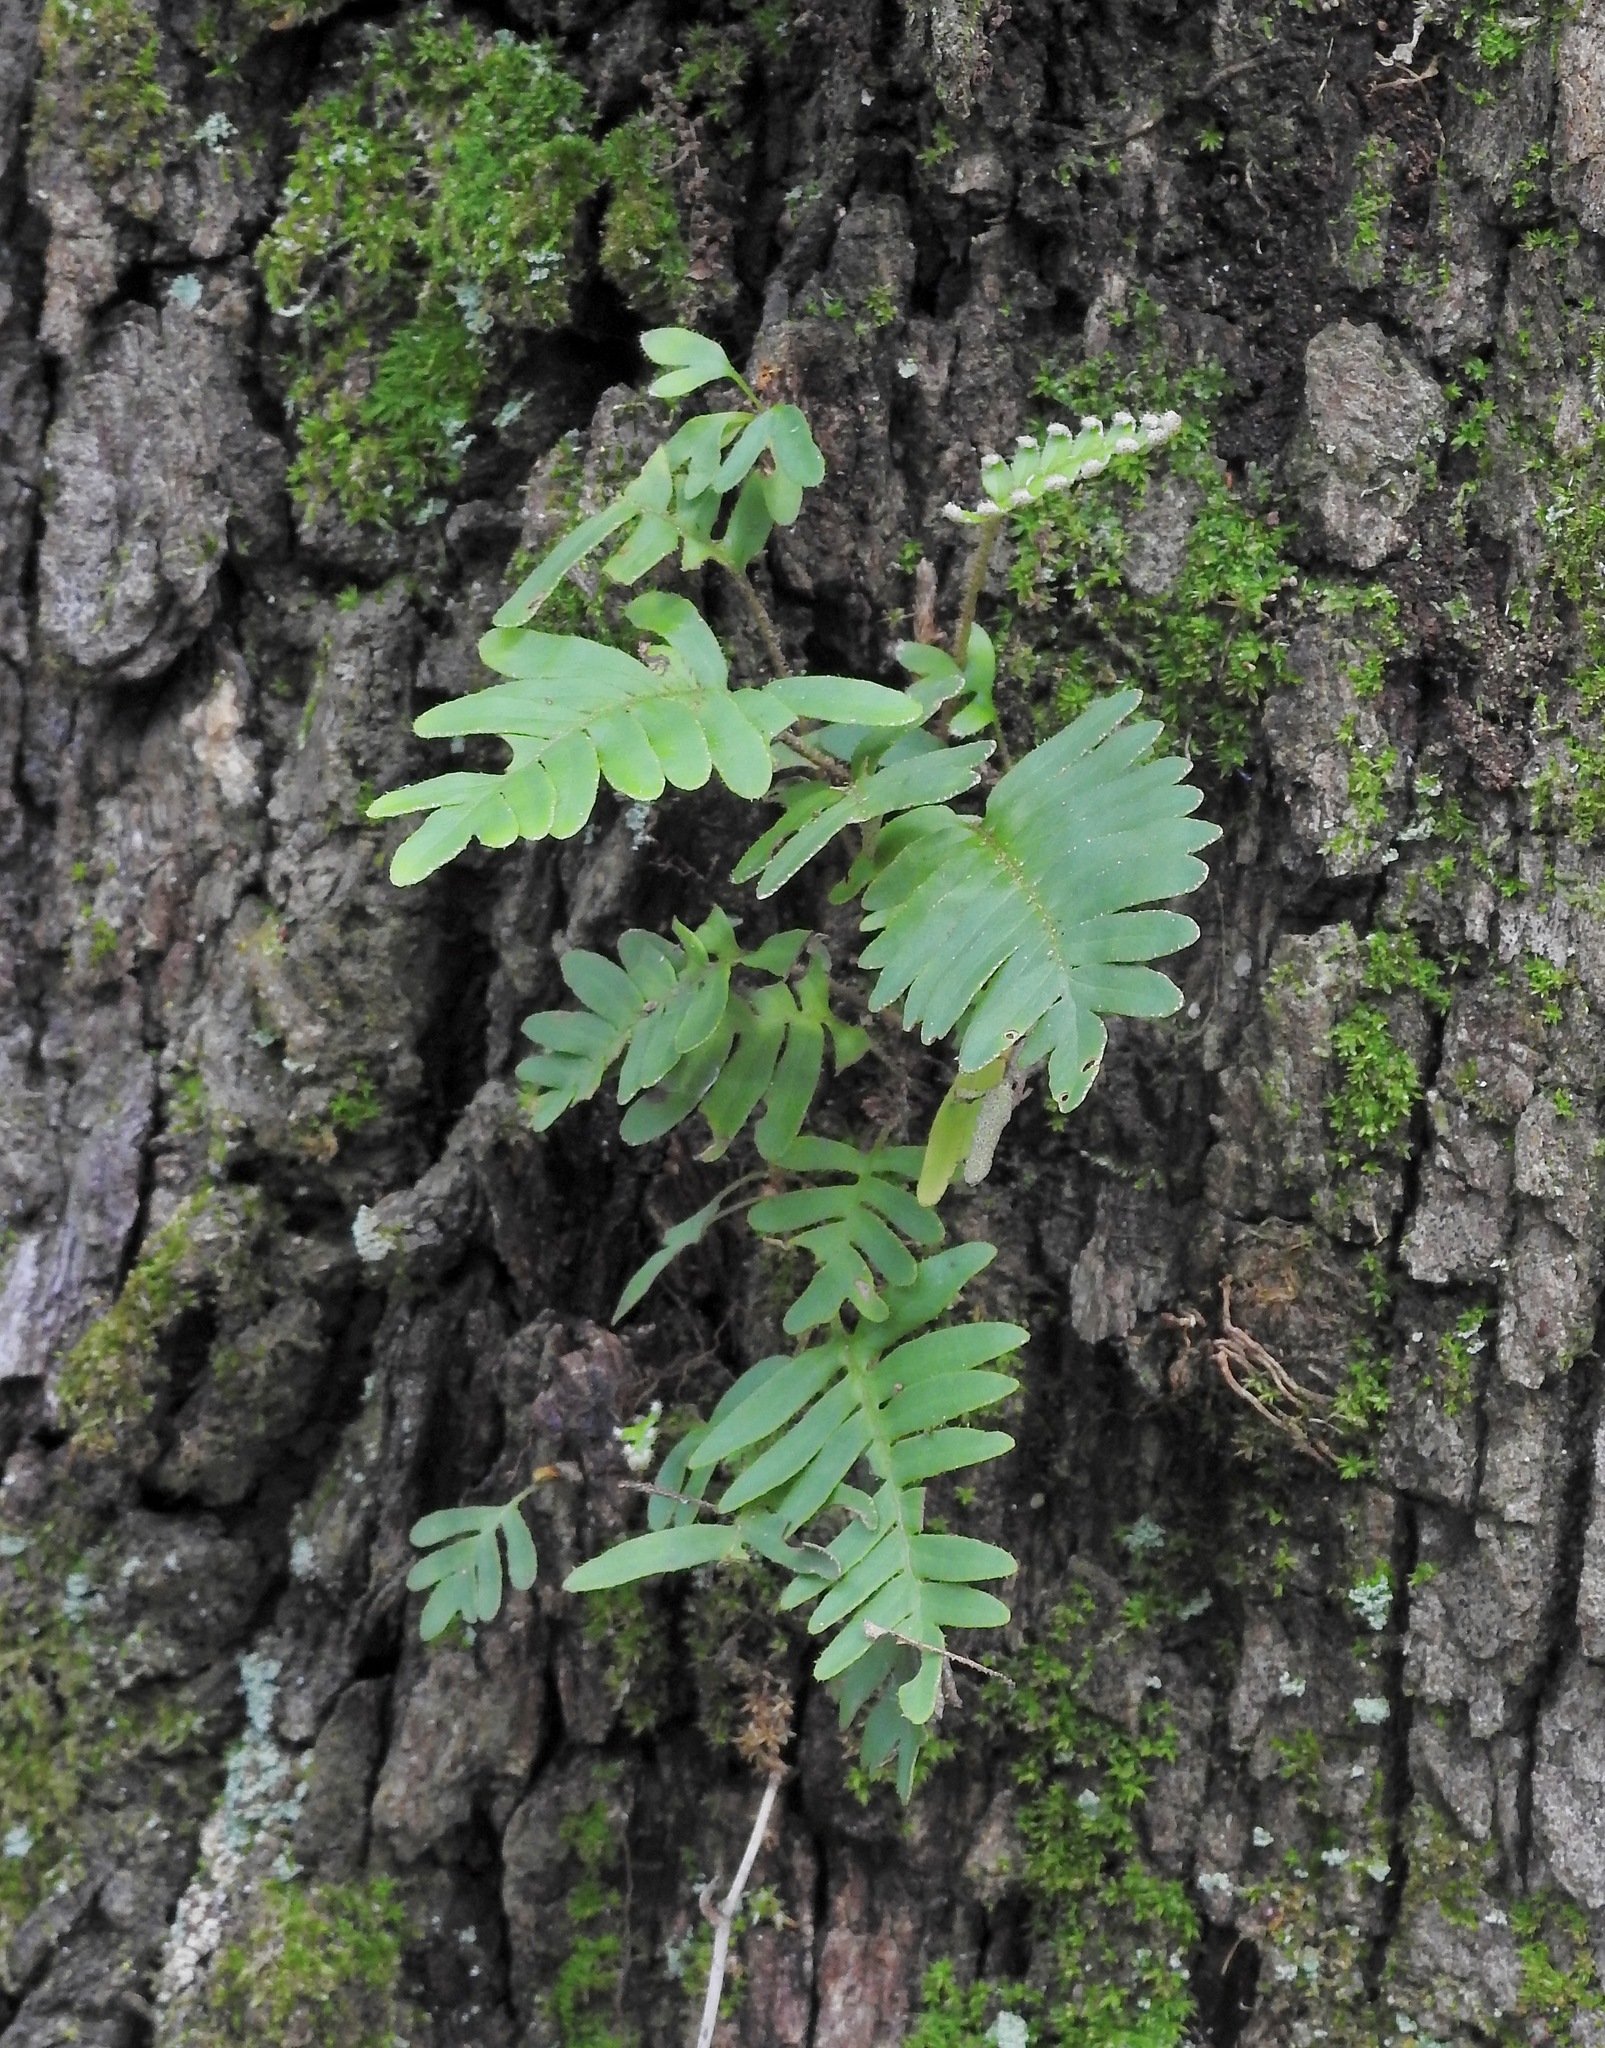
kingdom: Plantae
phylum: Tracheophyta
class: Polypodiopsida
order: Polypodiales
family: Polypodiaceae
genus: Pleopeltis
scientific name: Pleopeltis michauxiana
